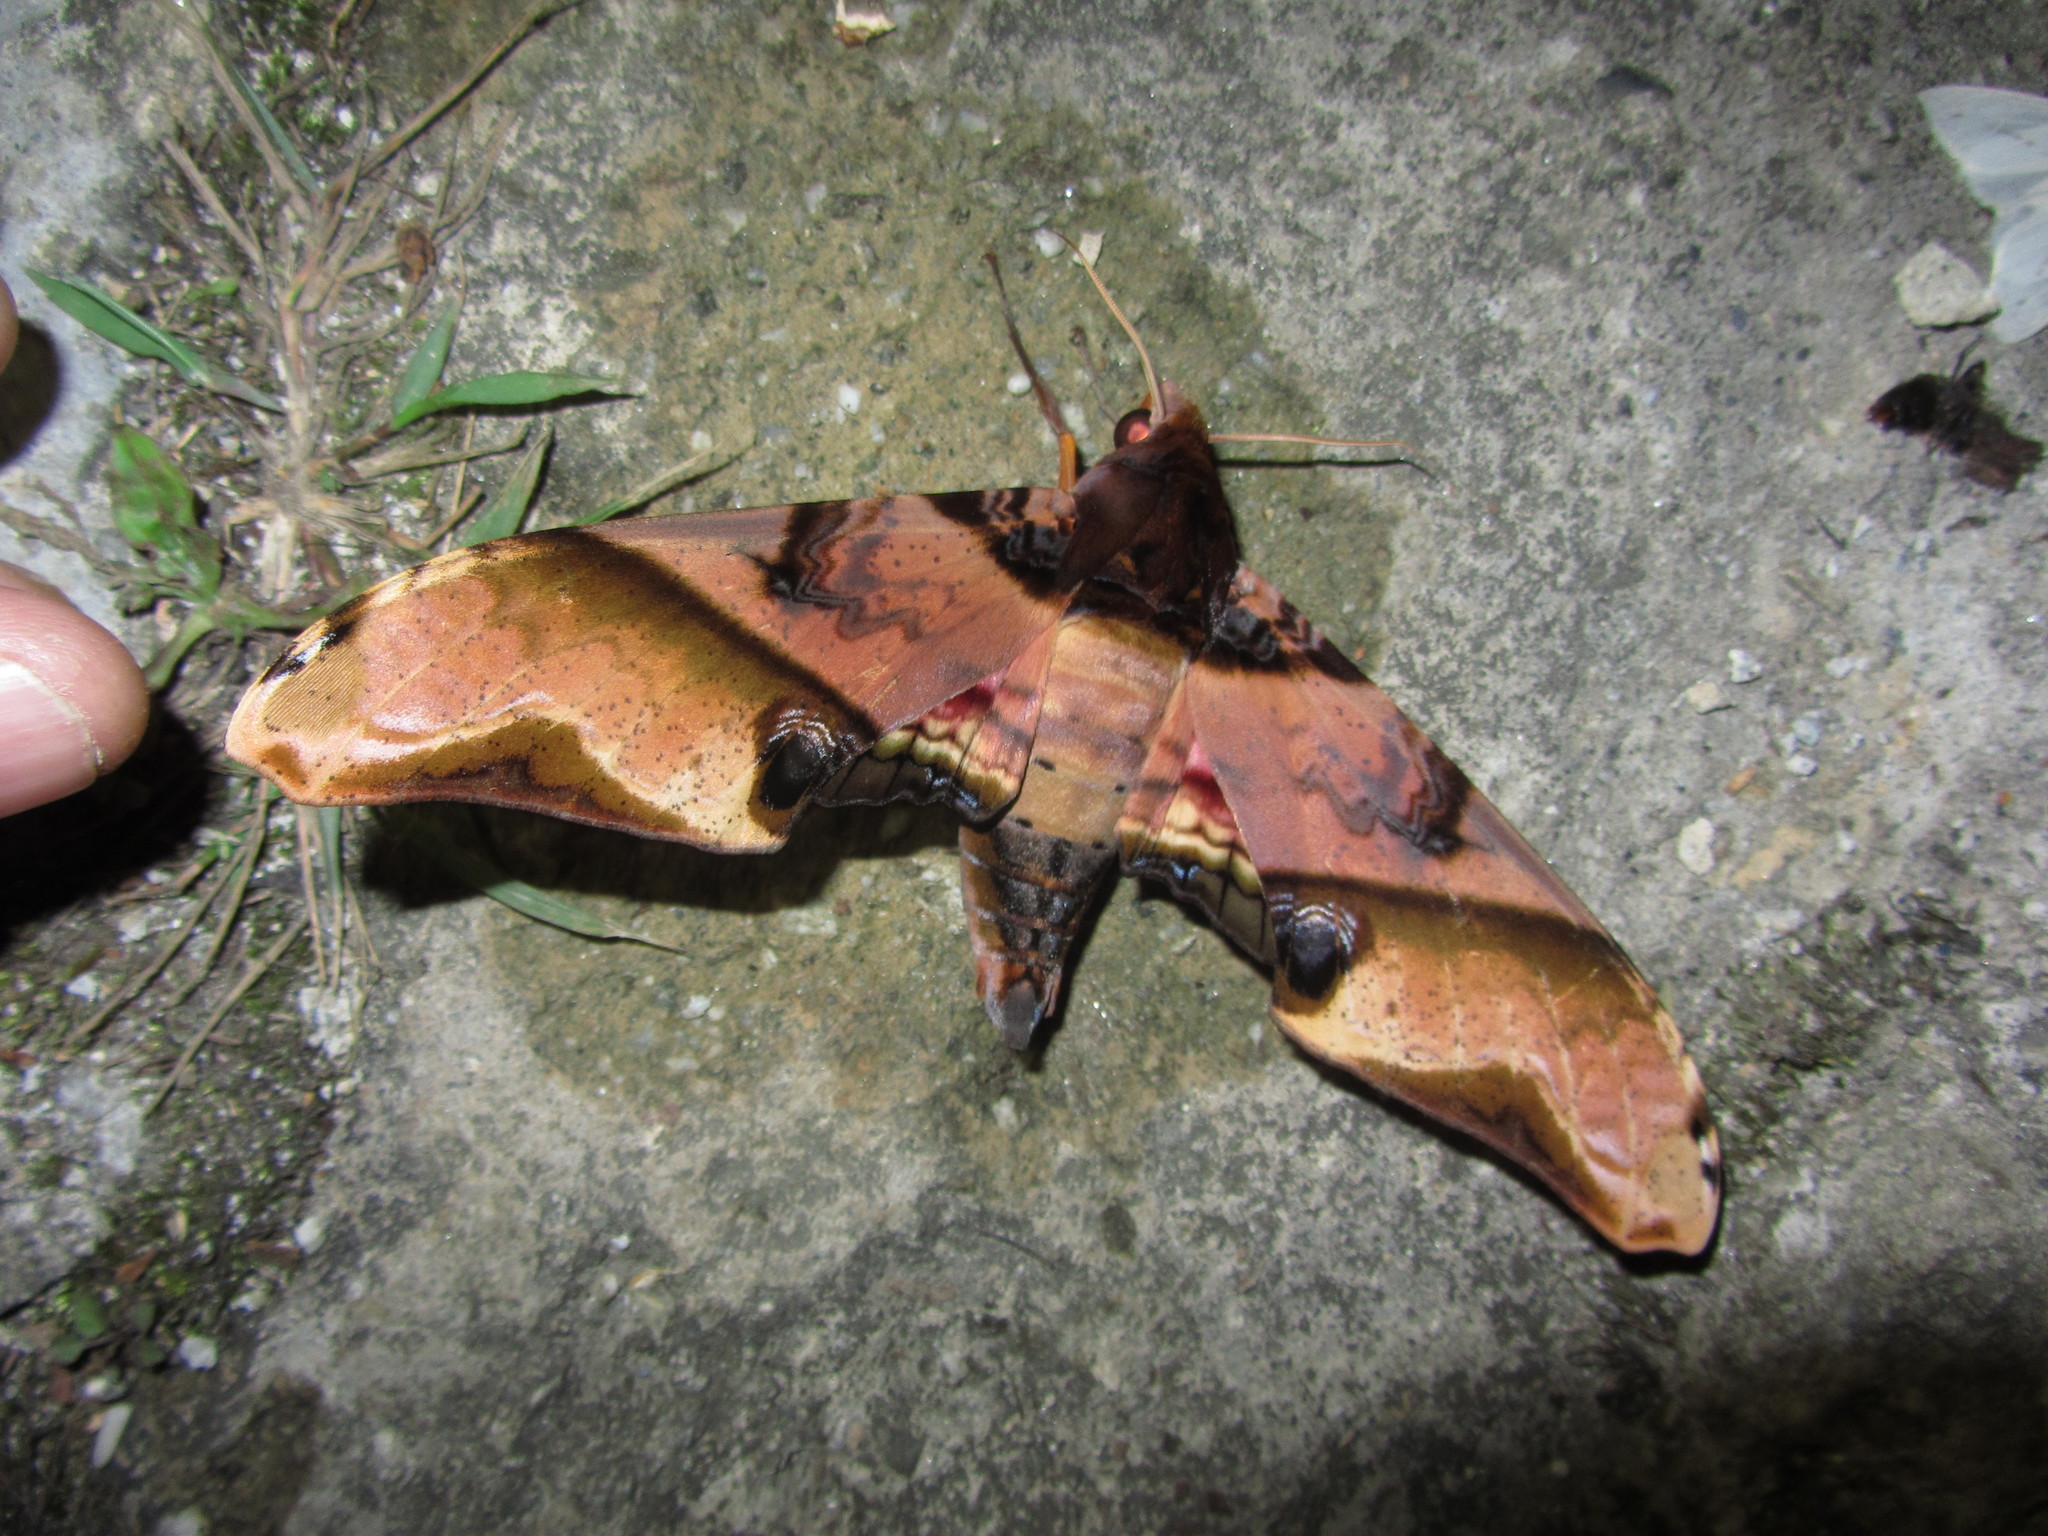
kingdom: Animalia
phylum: Arthropoda
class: Insecta
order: Lepidoptera
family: Sphingidae
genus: Amplypterus
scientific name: Amplypterus panopus
